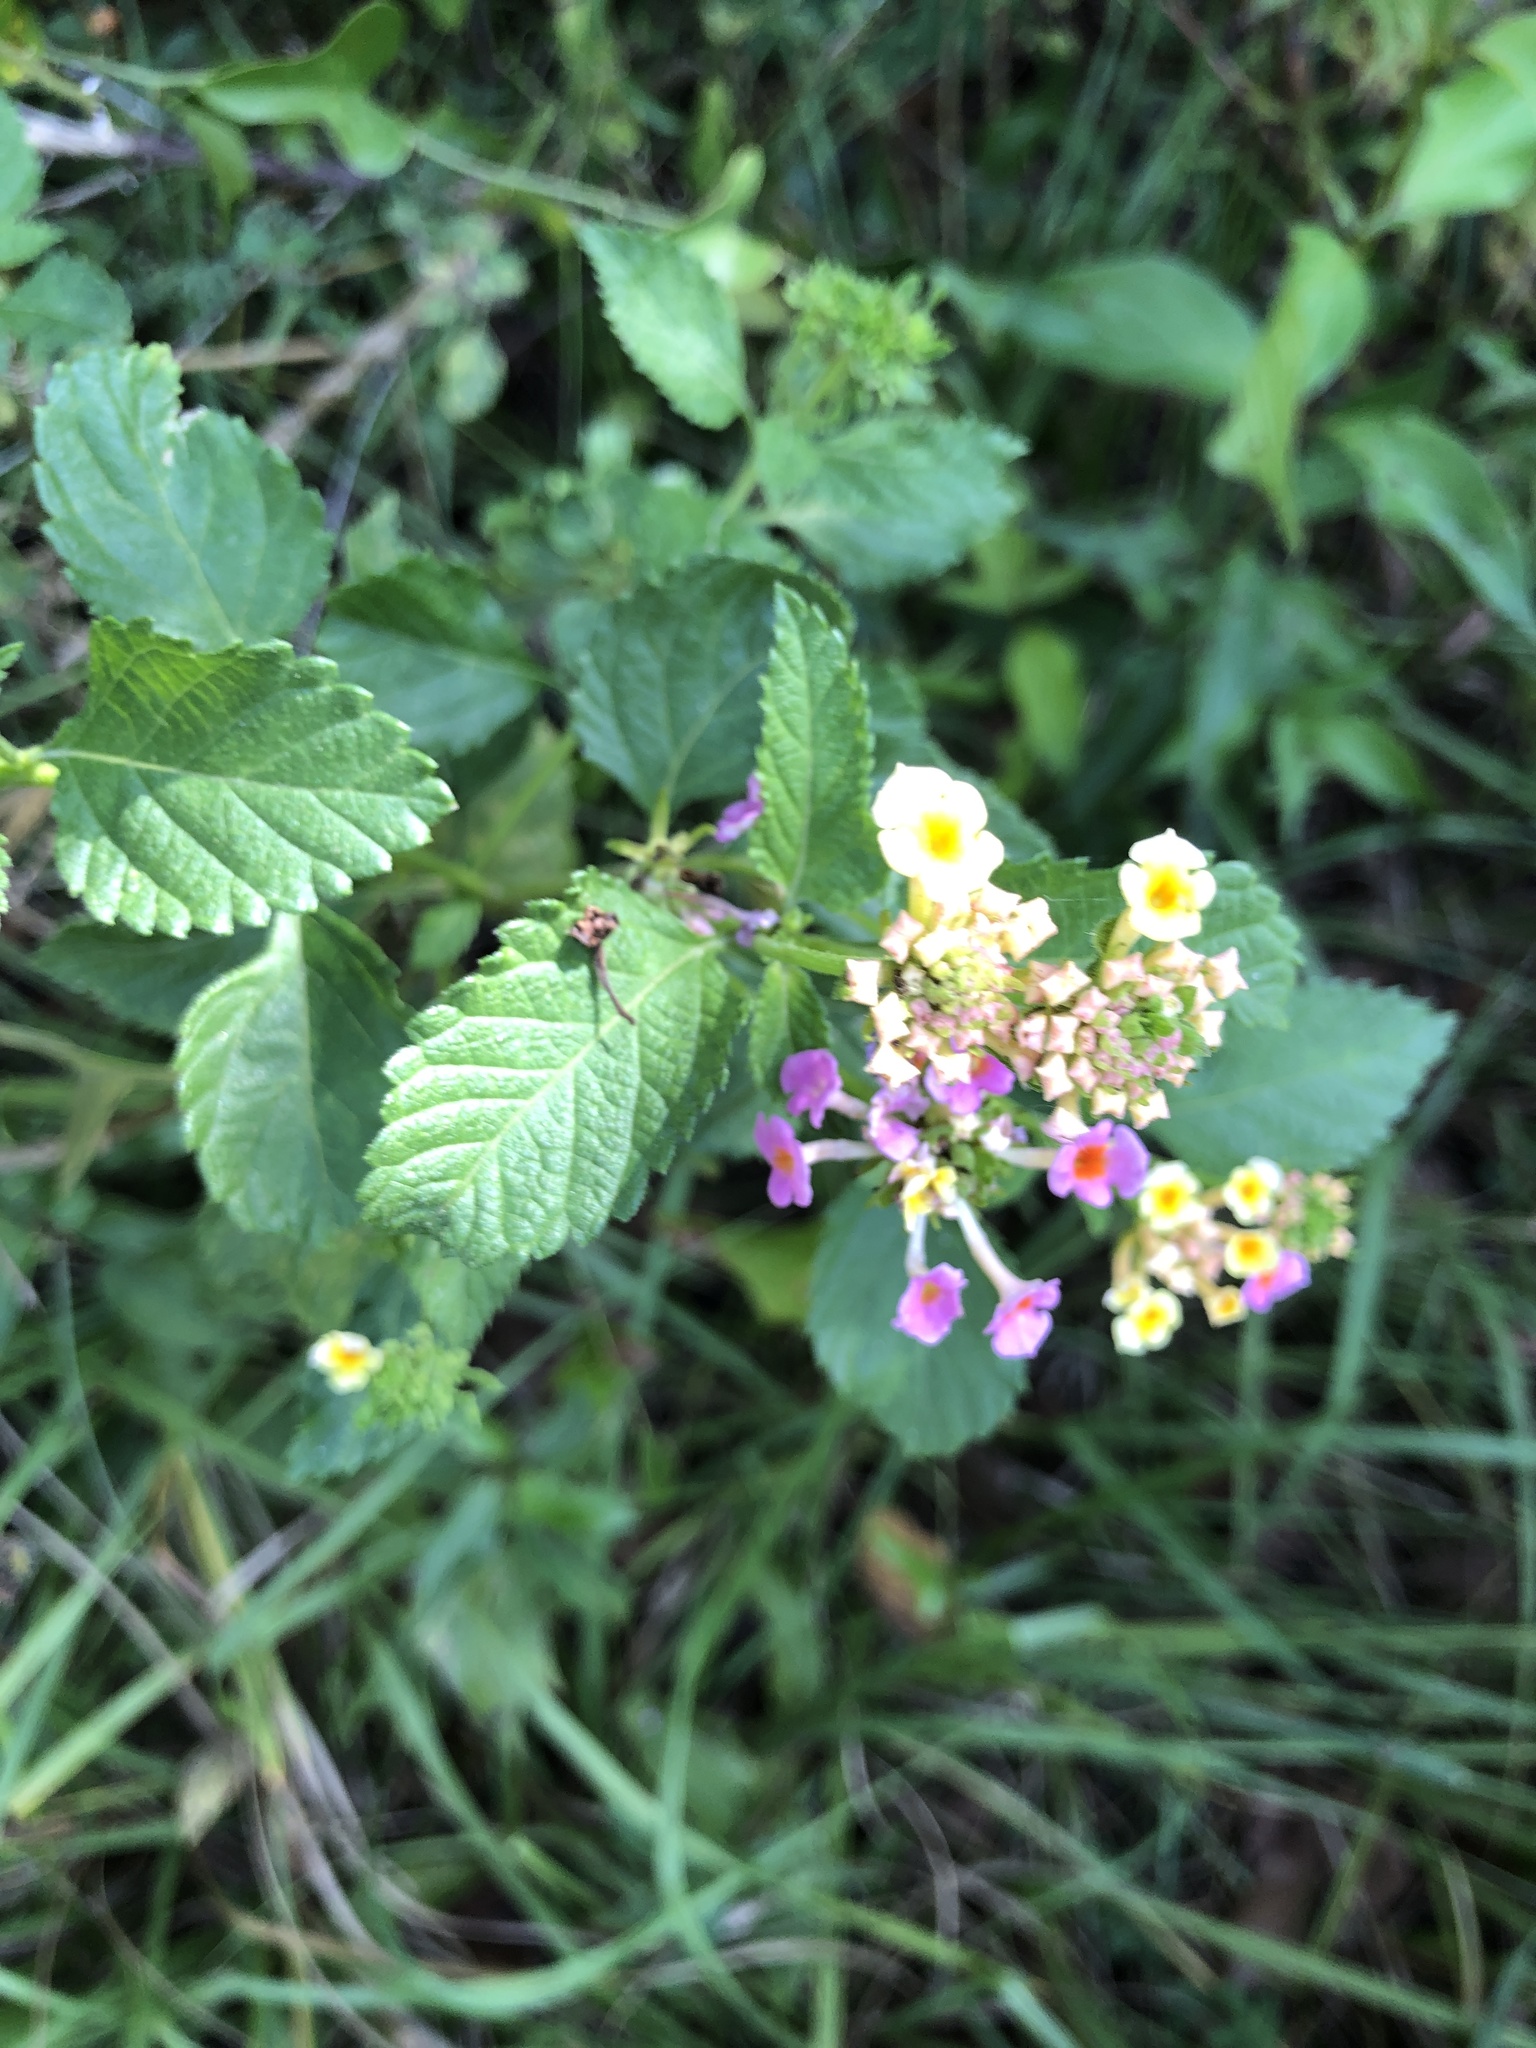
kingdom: Plantae
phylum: Tracheophyta
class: Magnoliopsida
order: Lamiales
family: Verbenaceae
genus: Lantana
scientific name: Lantana strigocamara
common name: Lantana
